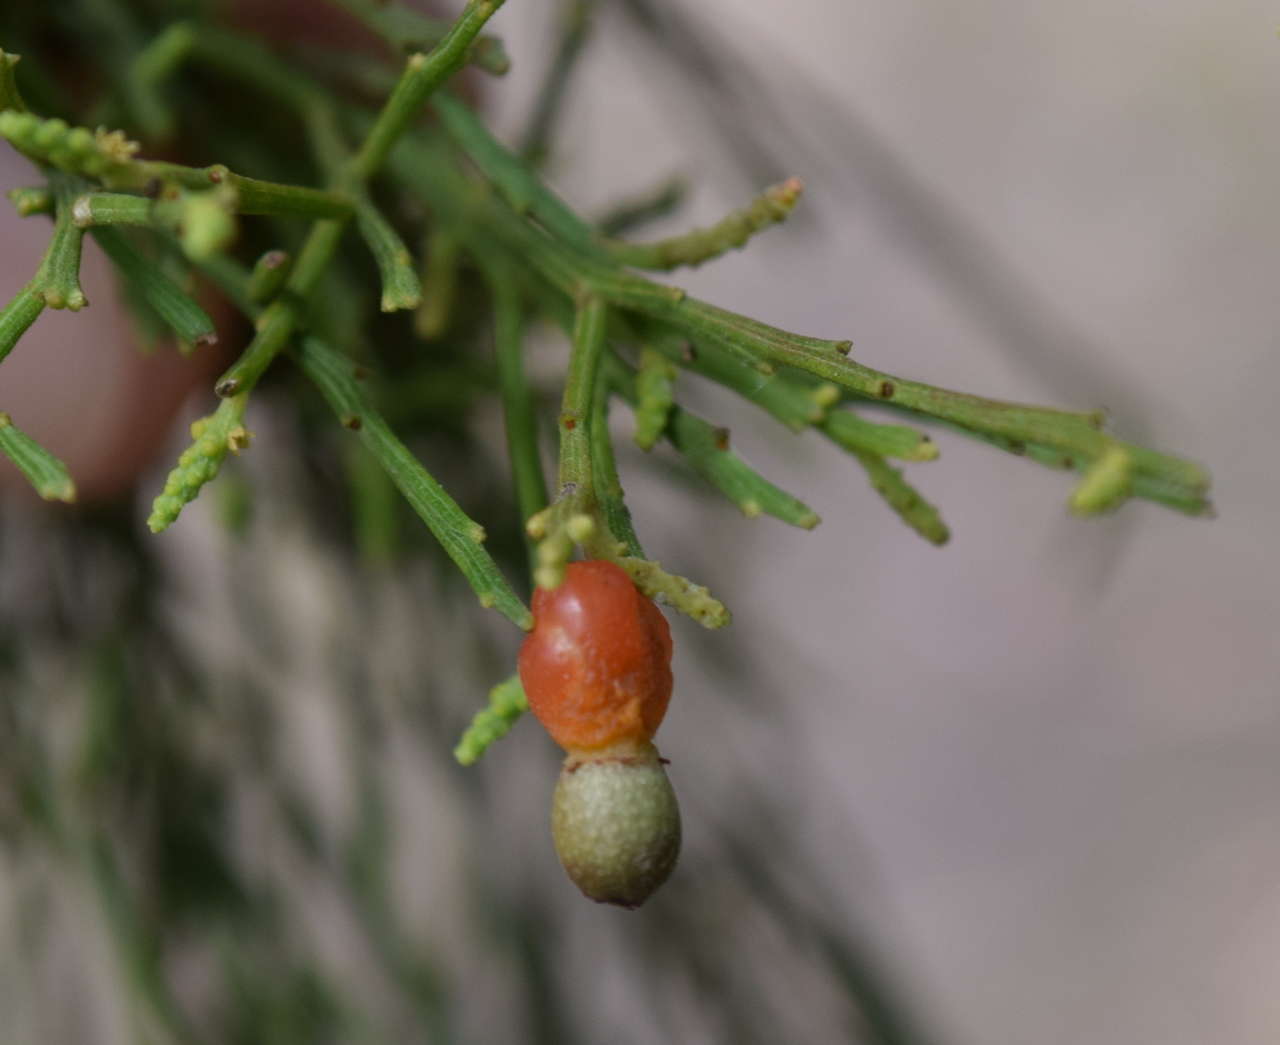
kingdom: Plantae
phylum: Tracheophyta
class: Magnoliopsida
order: Santalales
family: Santalaceae
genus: Exocarpos
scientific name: Exocarpos cupressiformis
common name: Cherry ballart
